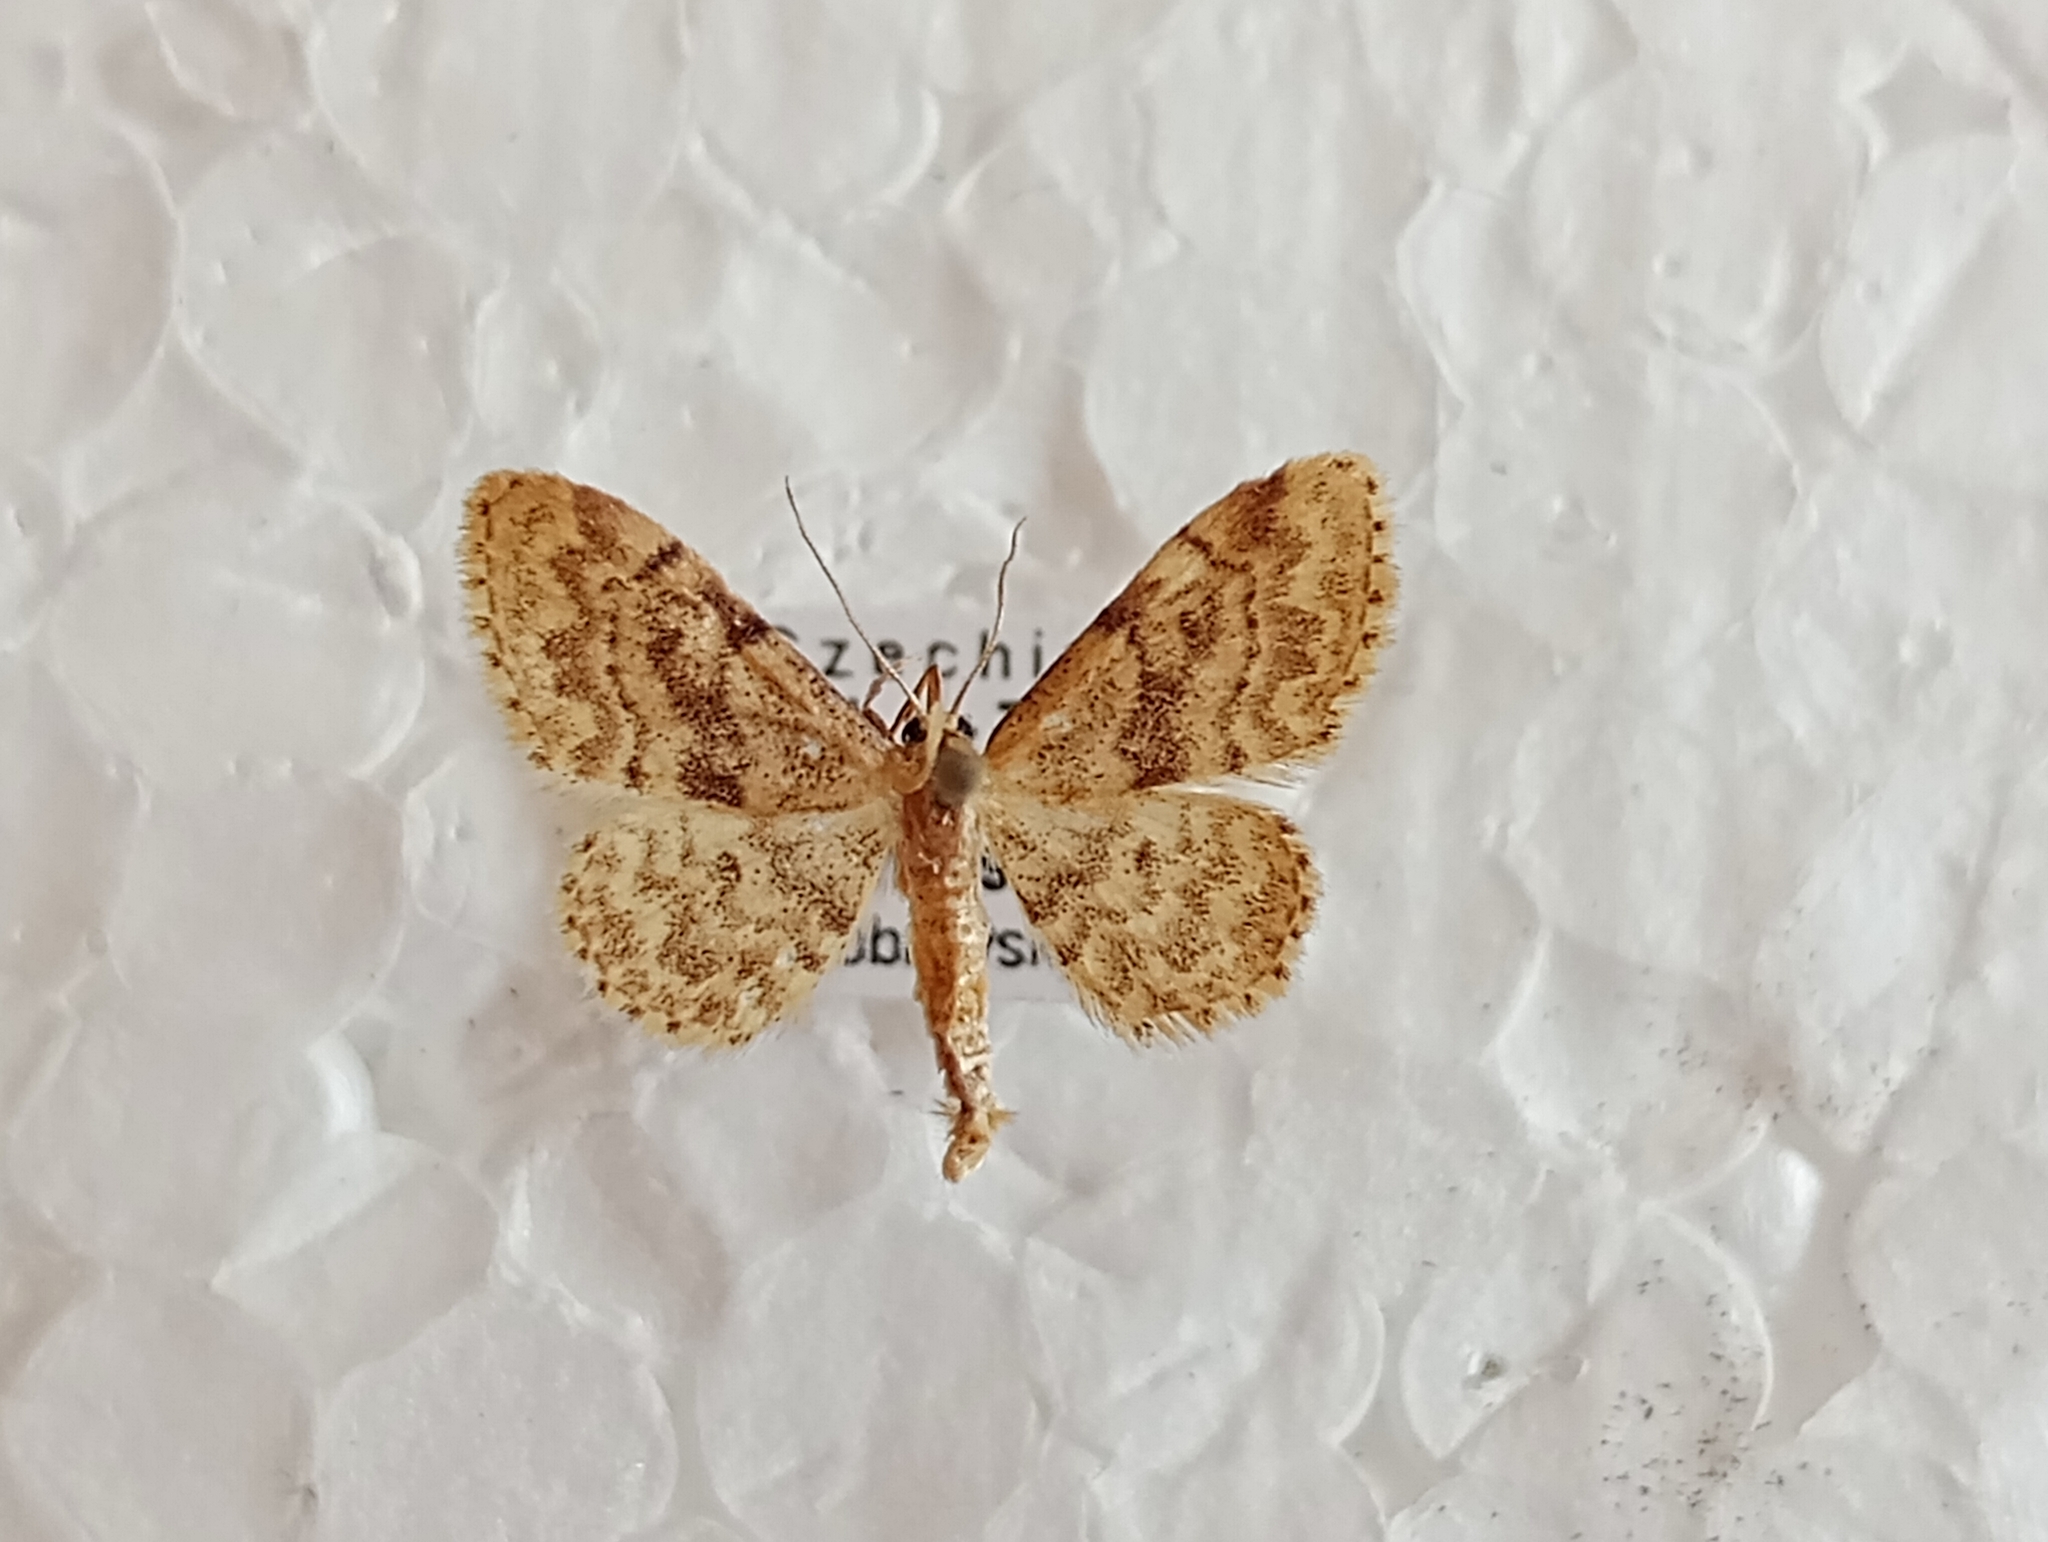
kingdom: Animalia
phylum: Arthropoda
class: Insecta
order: Lepidoptera
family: Geometridae
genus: Idaea
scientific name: Idaea inquinata
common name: Rusty wave
